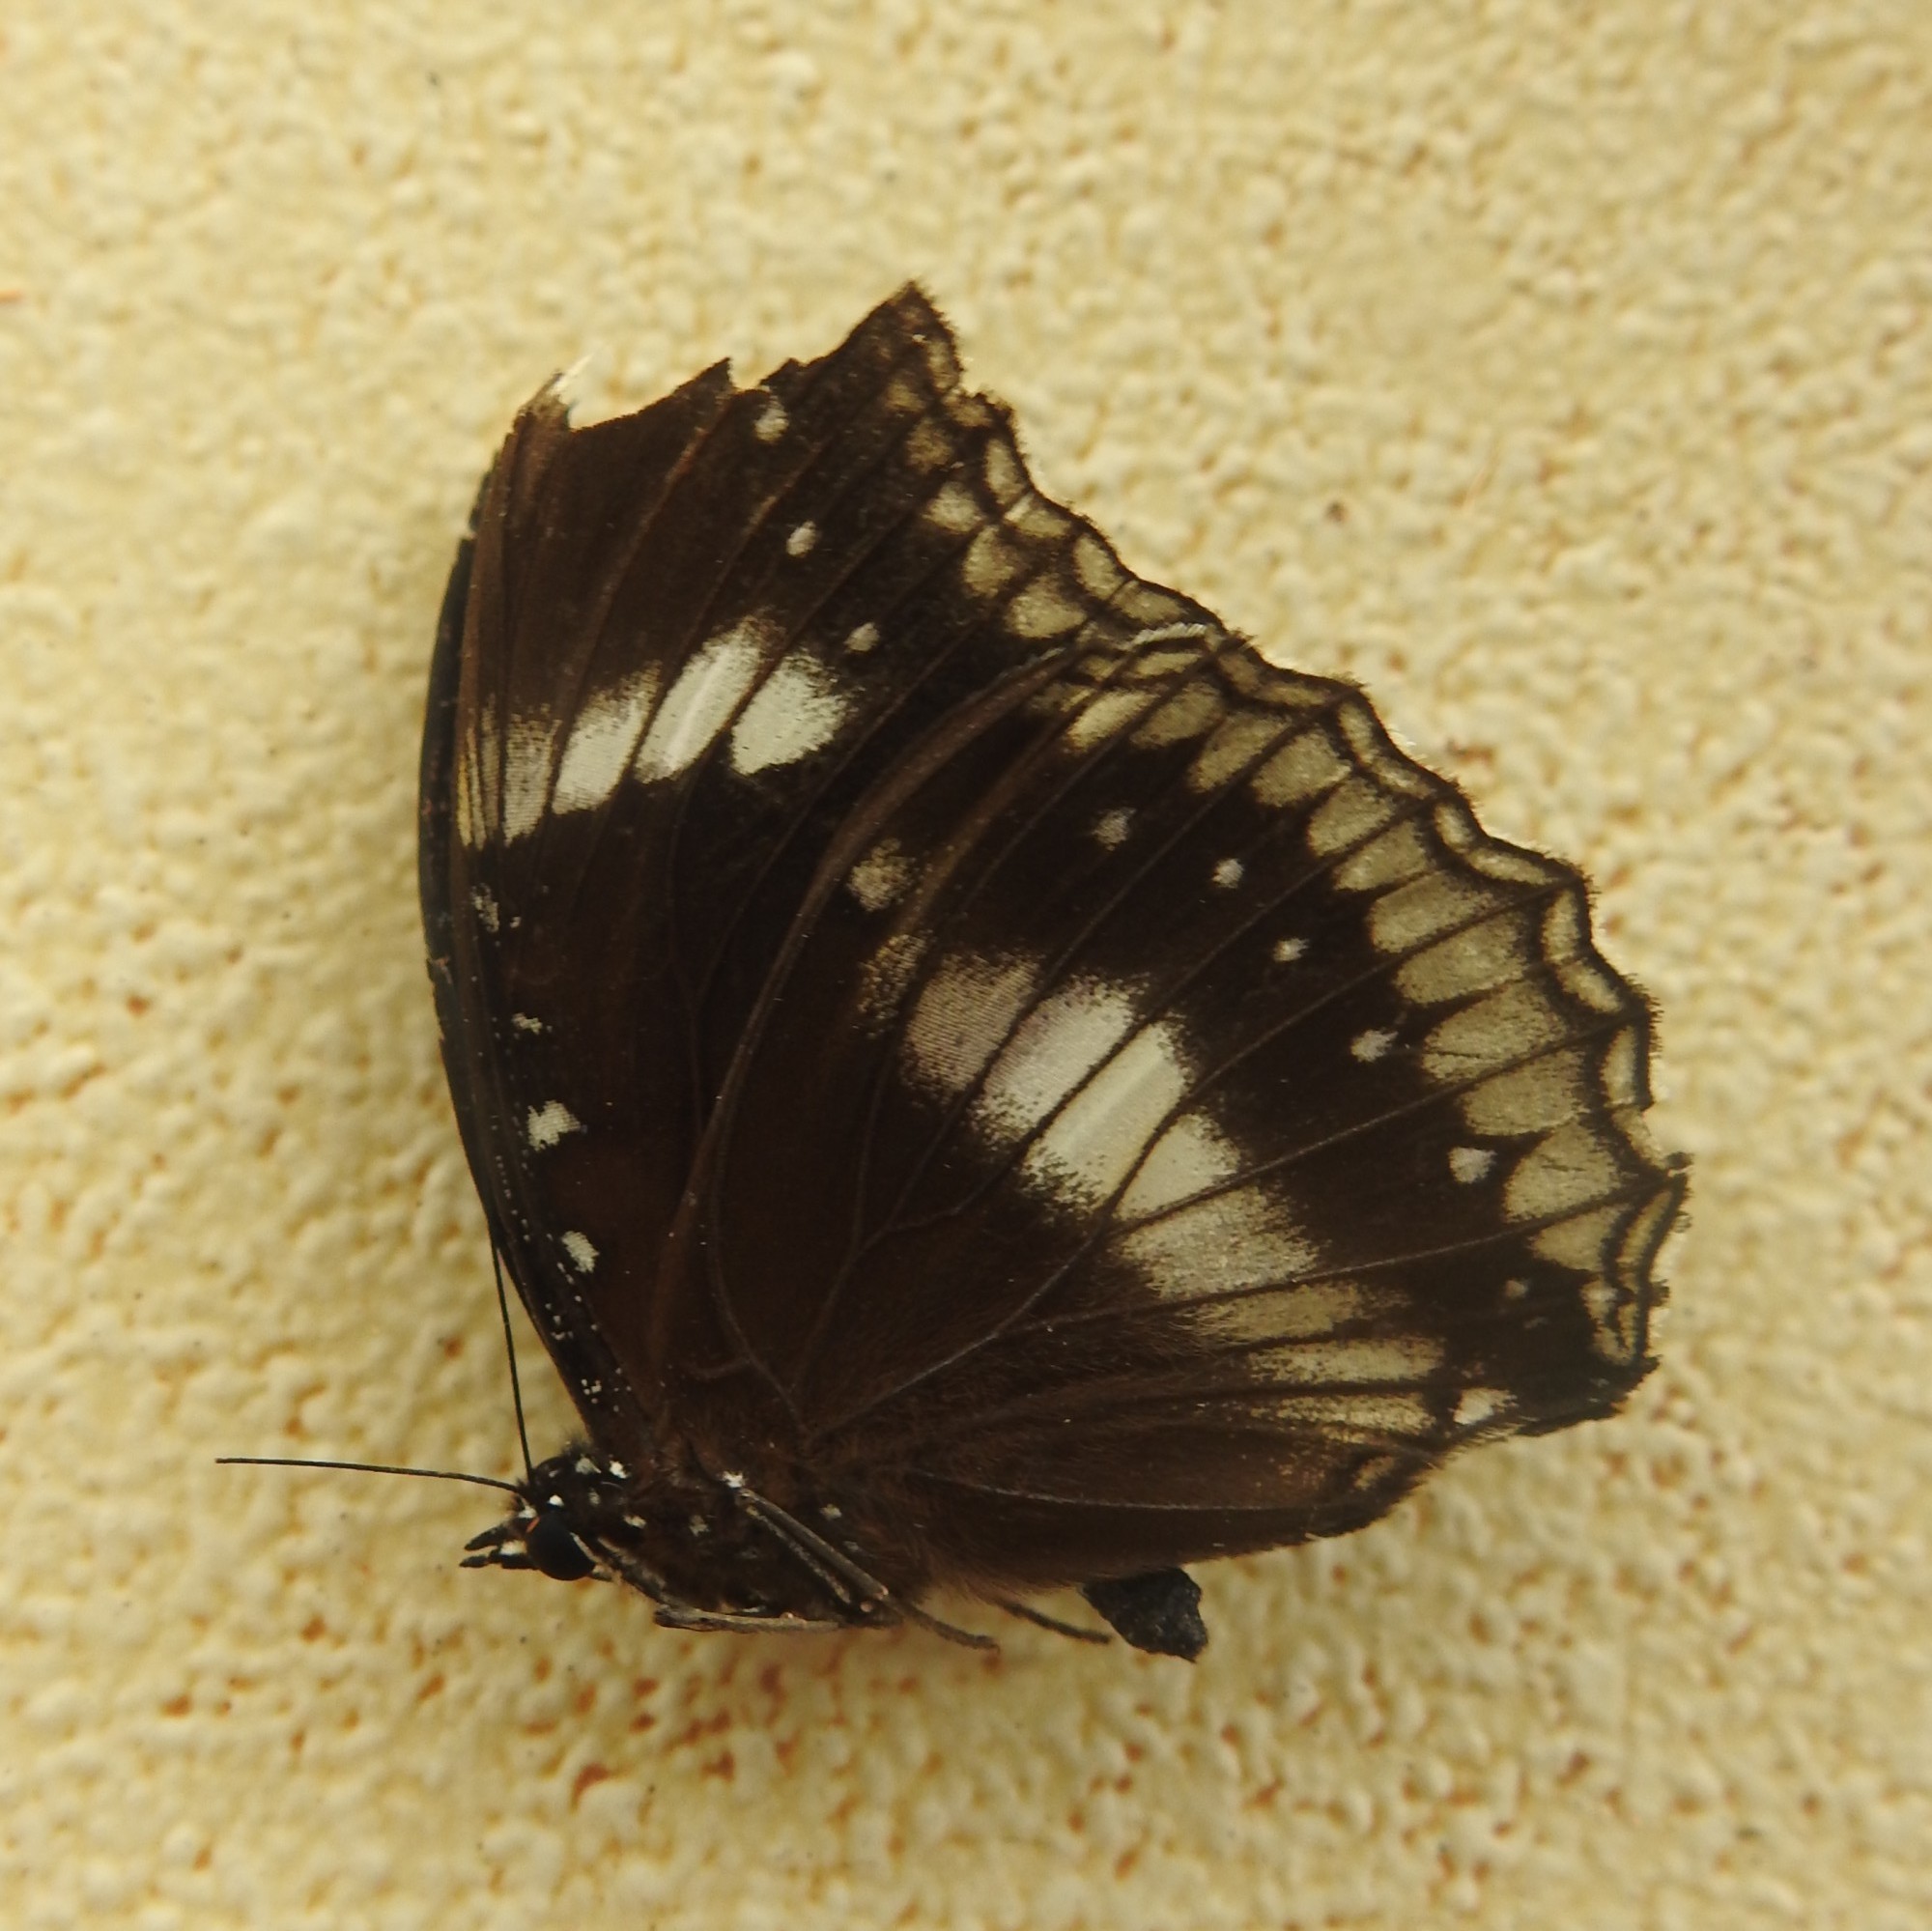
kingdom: Animalia
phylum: Arthropoda
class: Insecta
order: Lepidoptera
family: Nymphalidae
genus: Hypolimnas
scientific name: Hypolimnas bolina
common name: Great eggfly
